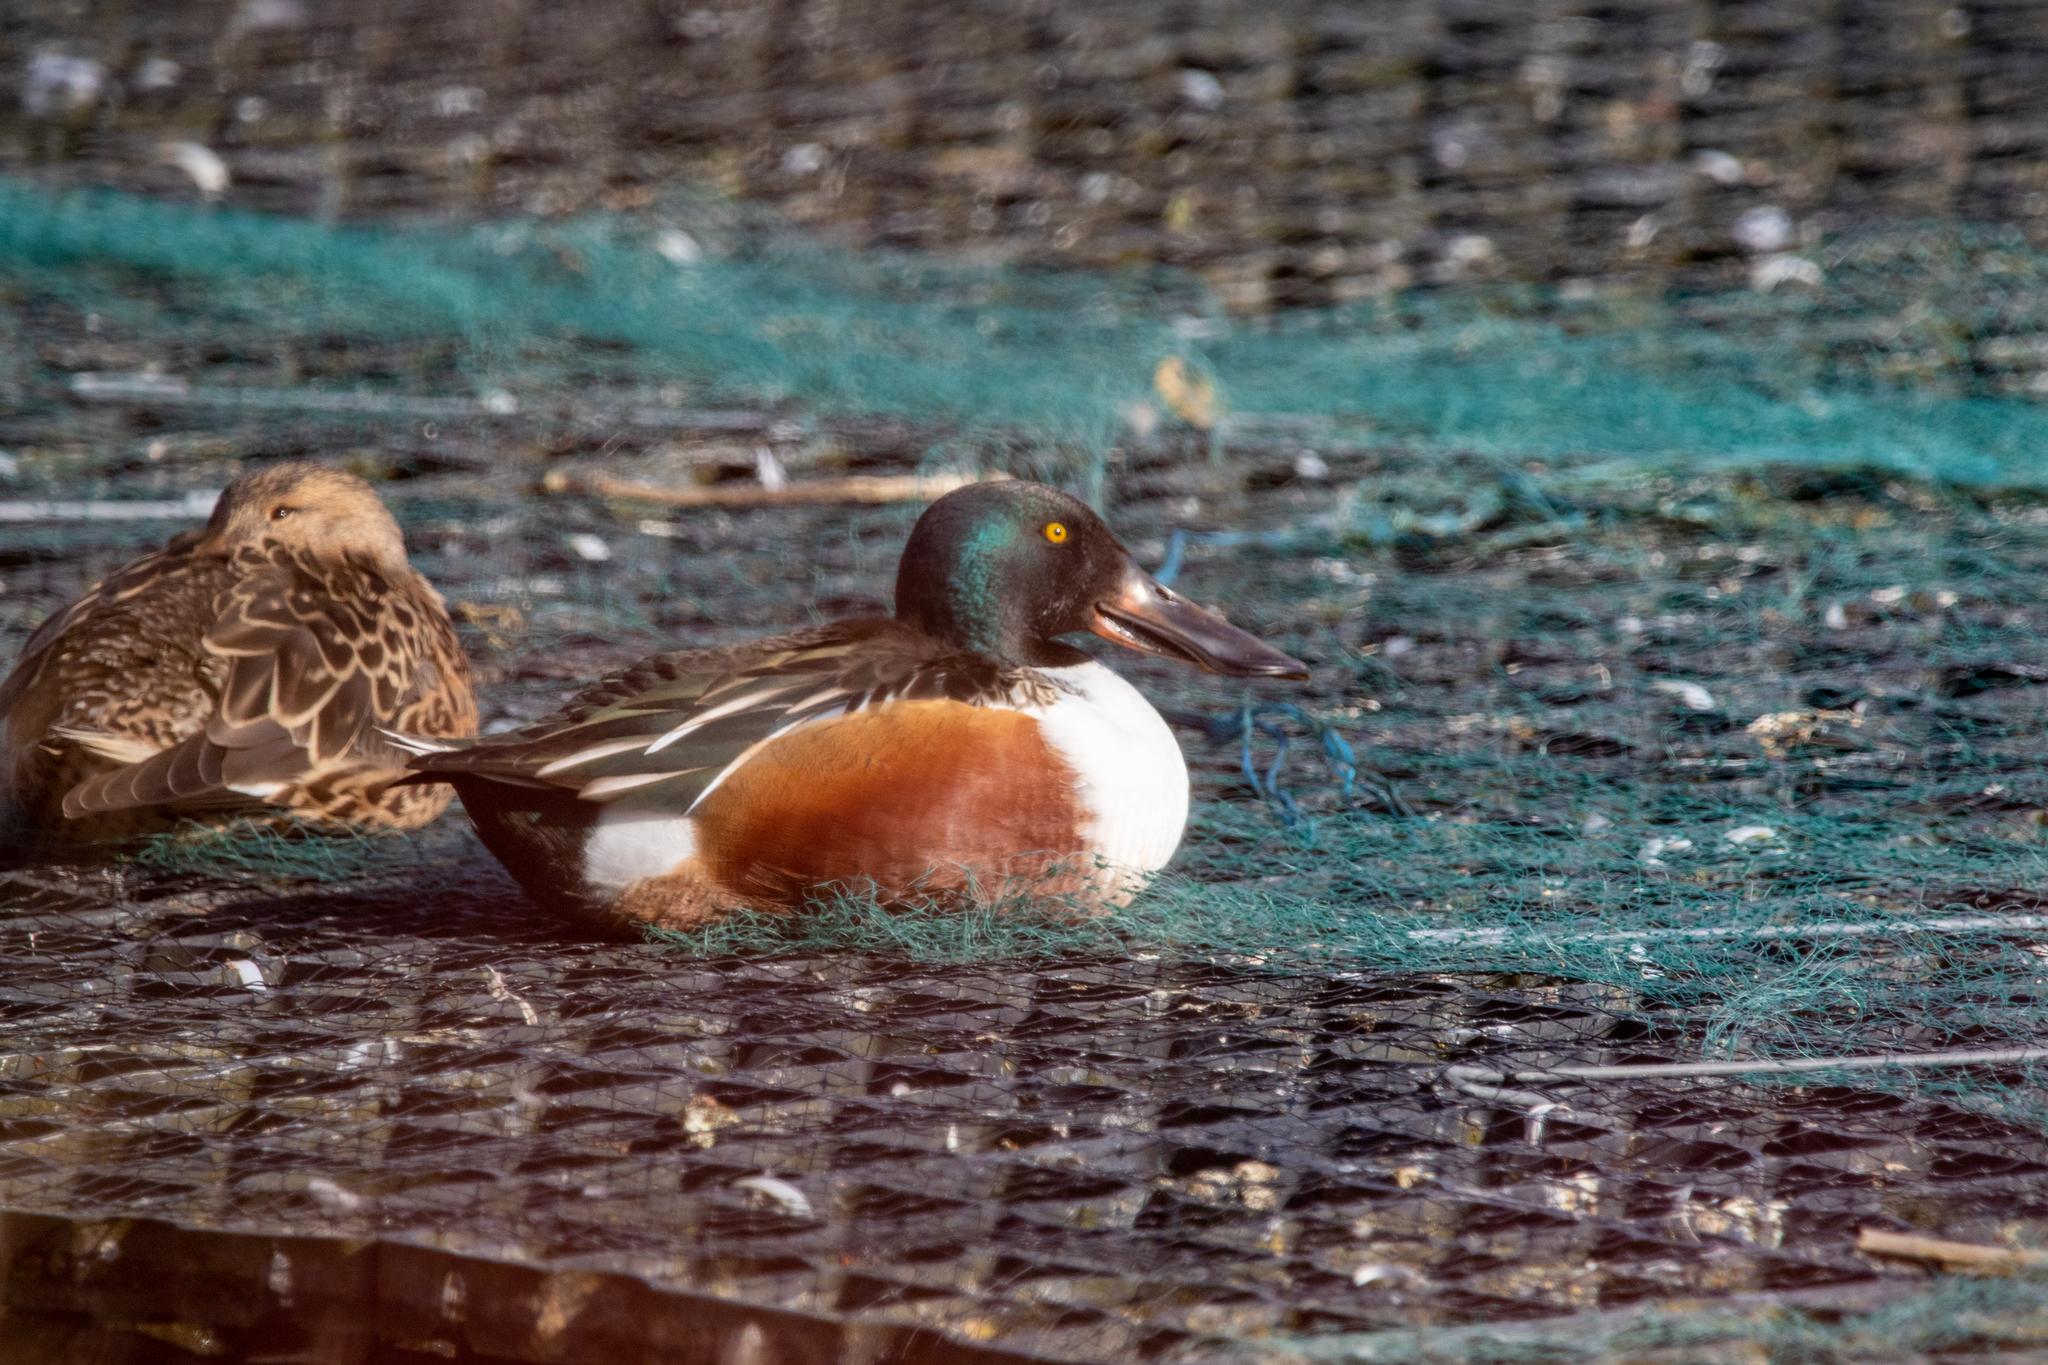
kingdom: Animalia
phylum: Chordata
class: Aves
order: Anseriformes
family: Anatidae
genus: Spatula
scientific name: Spatula clypeata
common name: Northern shoveler
